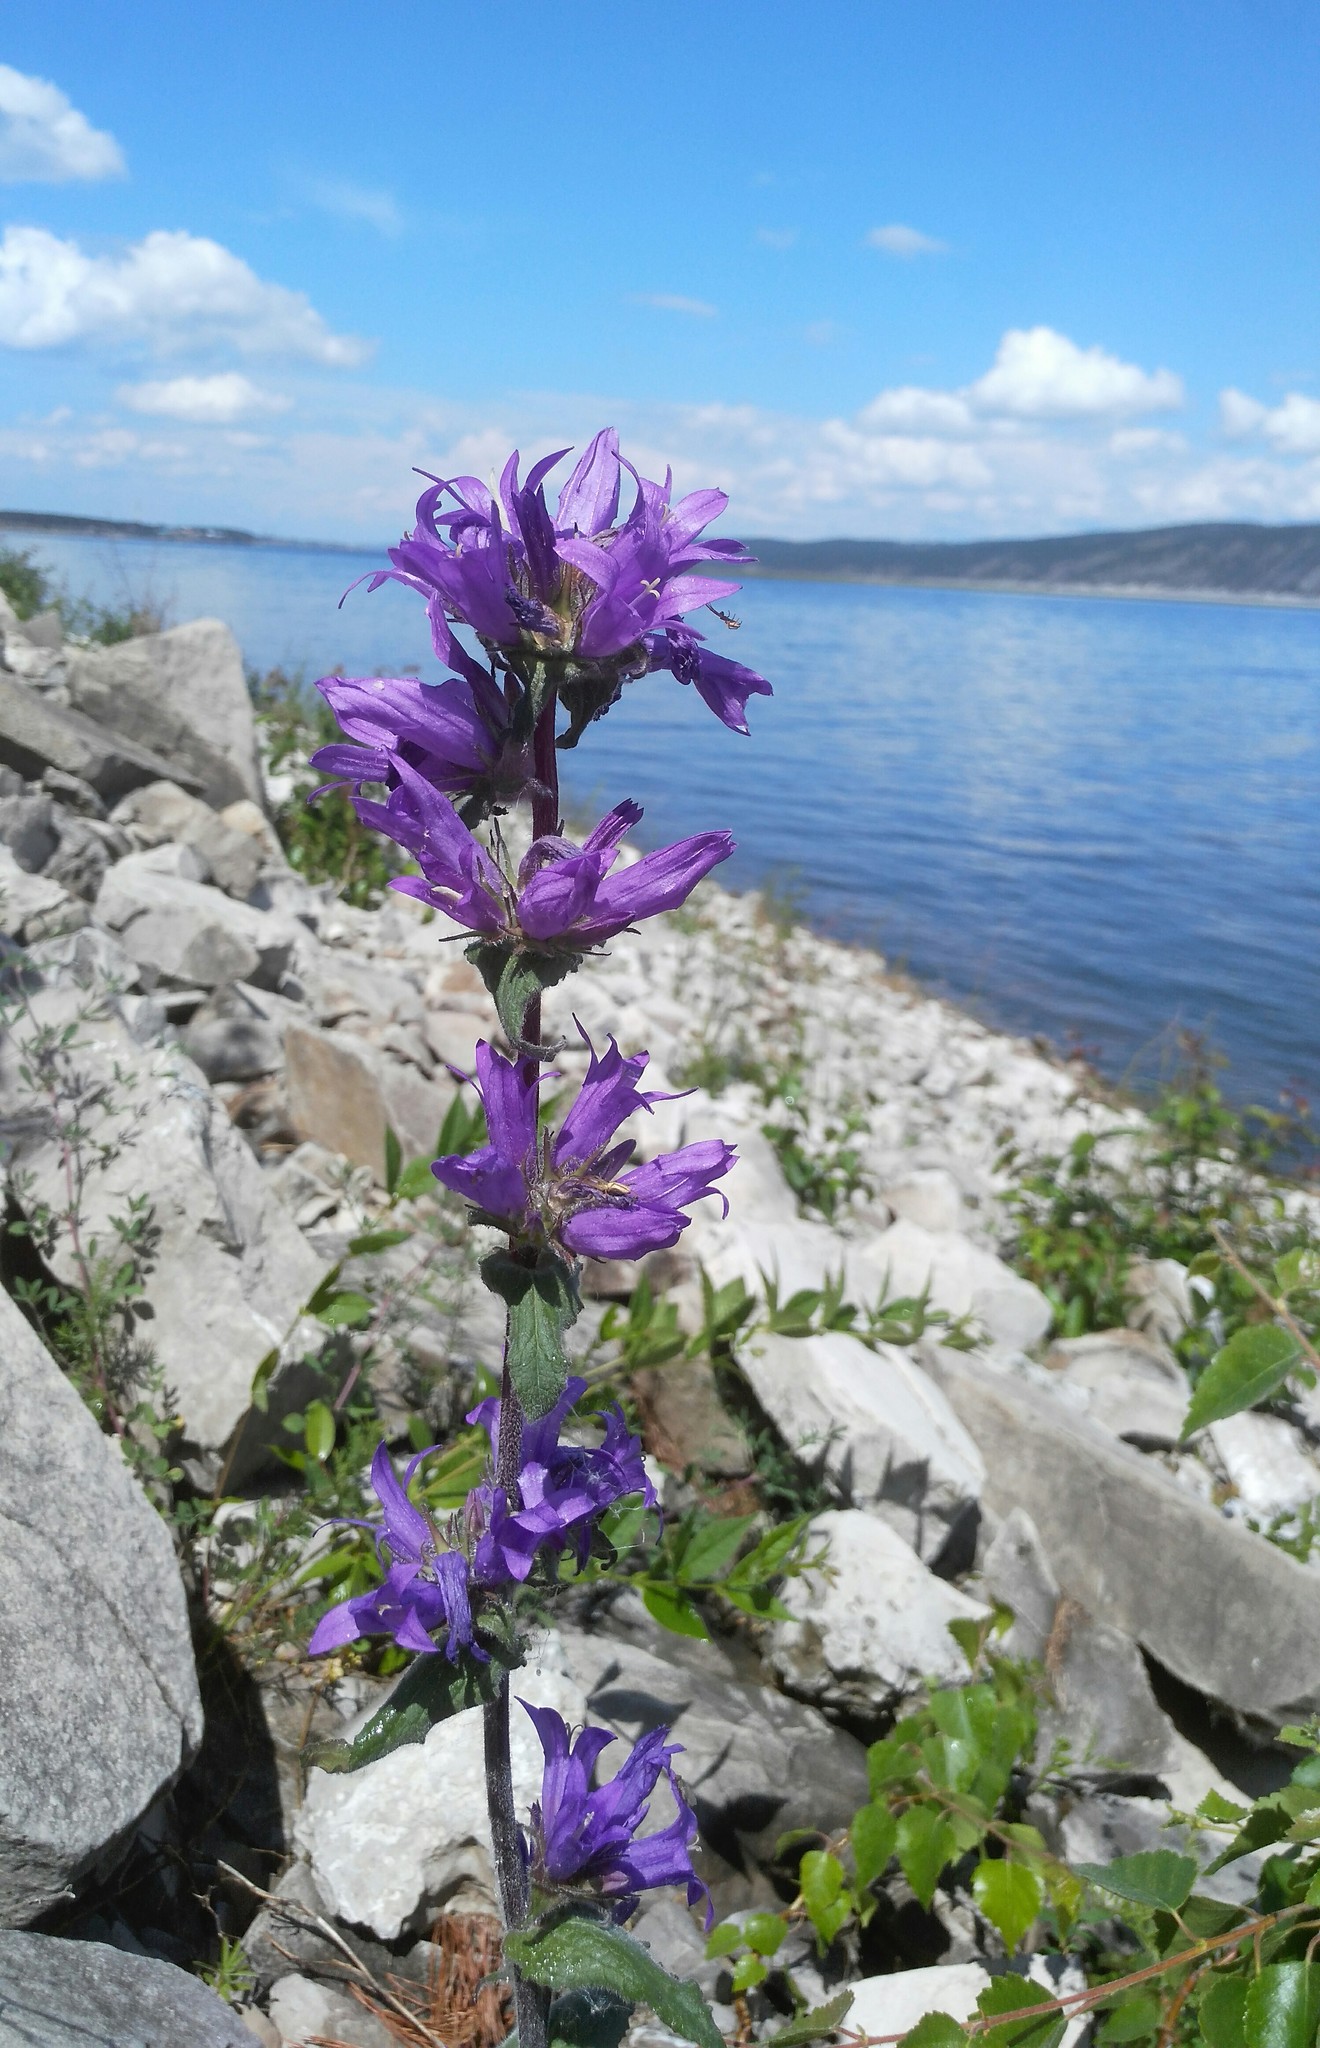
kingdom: Plantae
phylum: Tracheophyta
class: Magnoliopsida
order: Asterales
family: Campanulaceae
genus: Campanula
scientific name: Campanula glomerata
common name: Clustered bellflower
